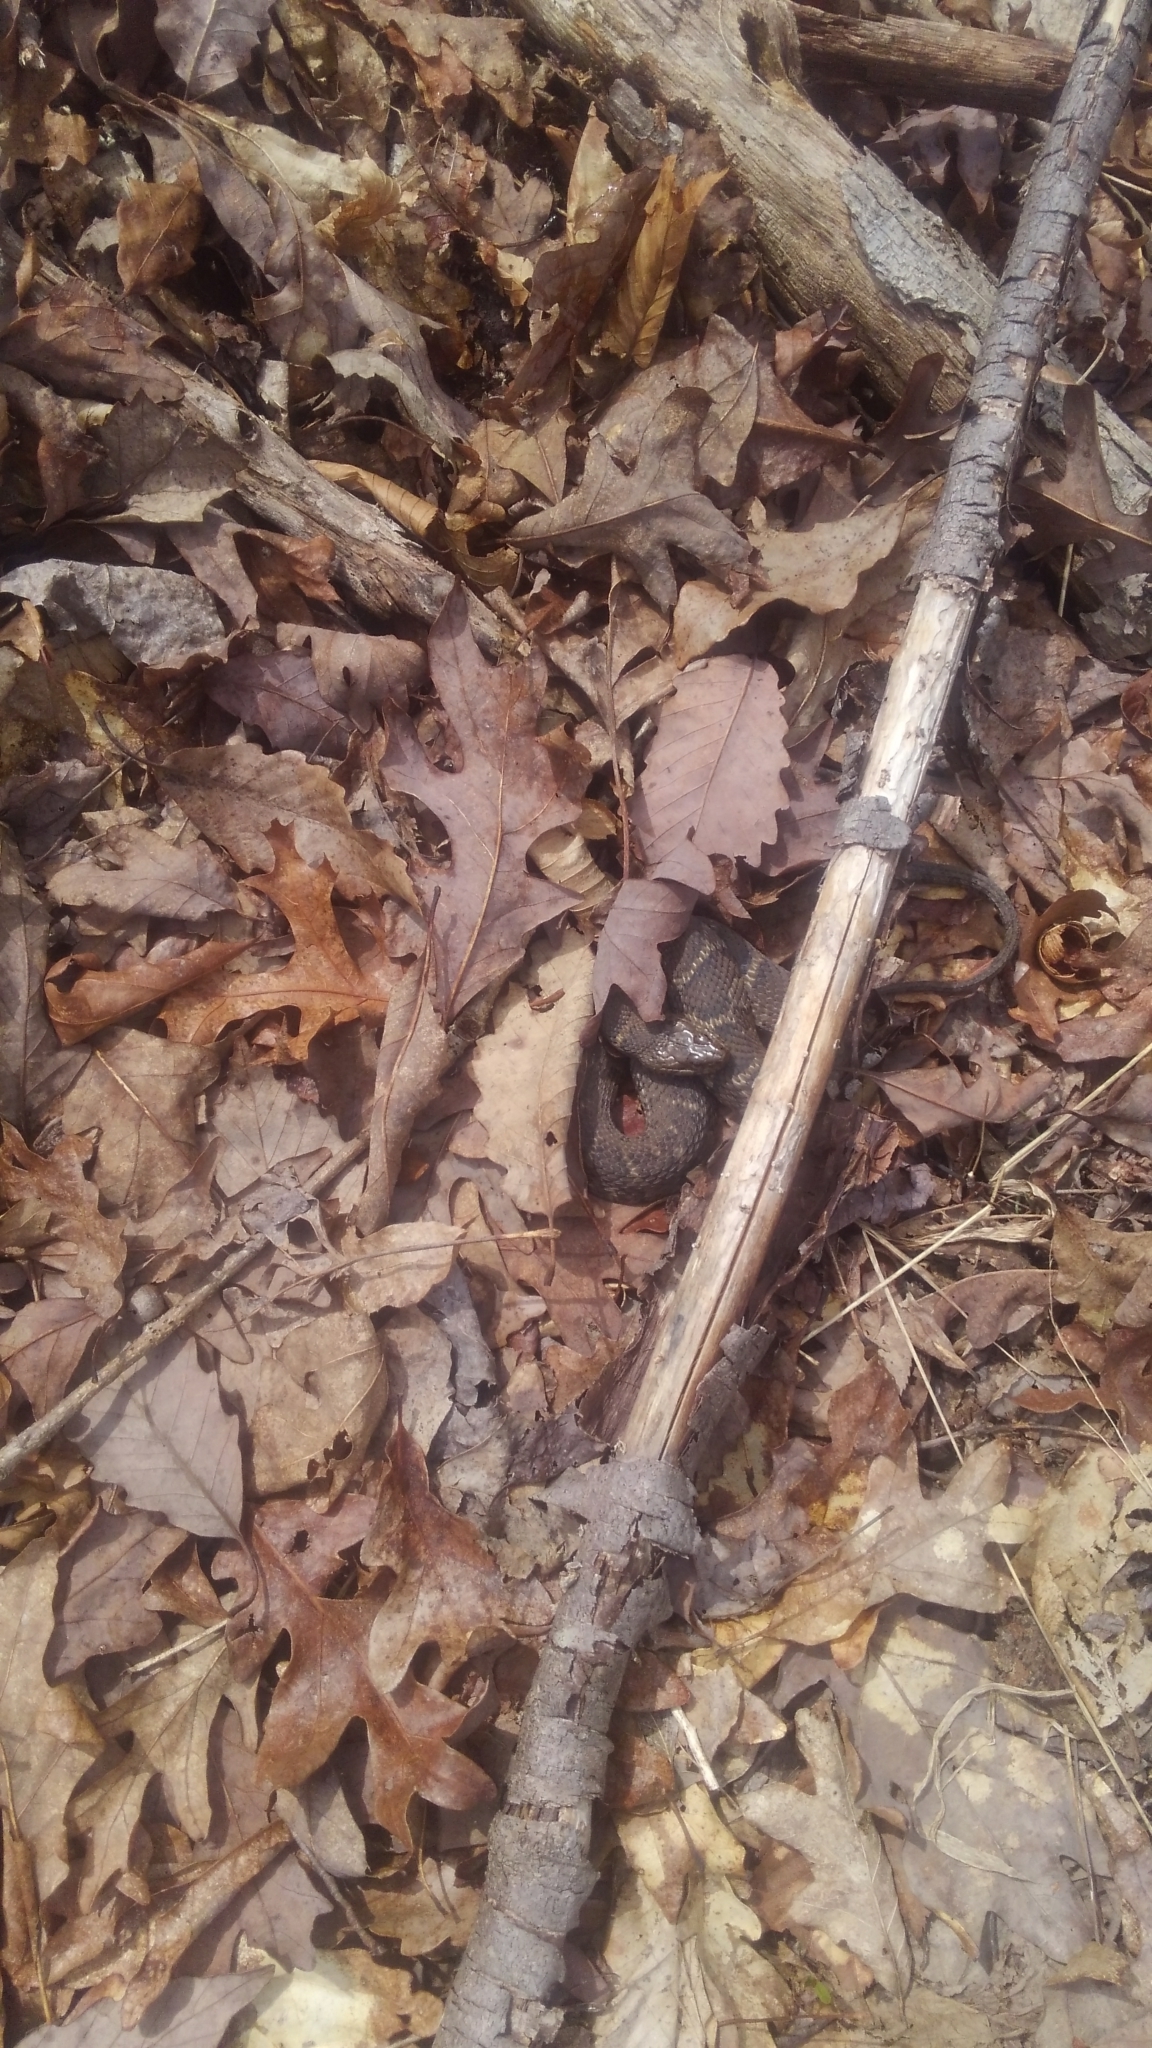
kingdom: Animalia
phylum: Chordata
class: Squamata
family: Colubridae
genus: Nerodia
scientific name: Nerodia sipedon
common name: Northern water snake
